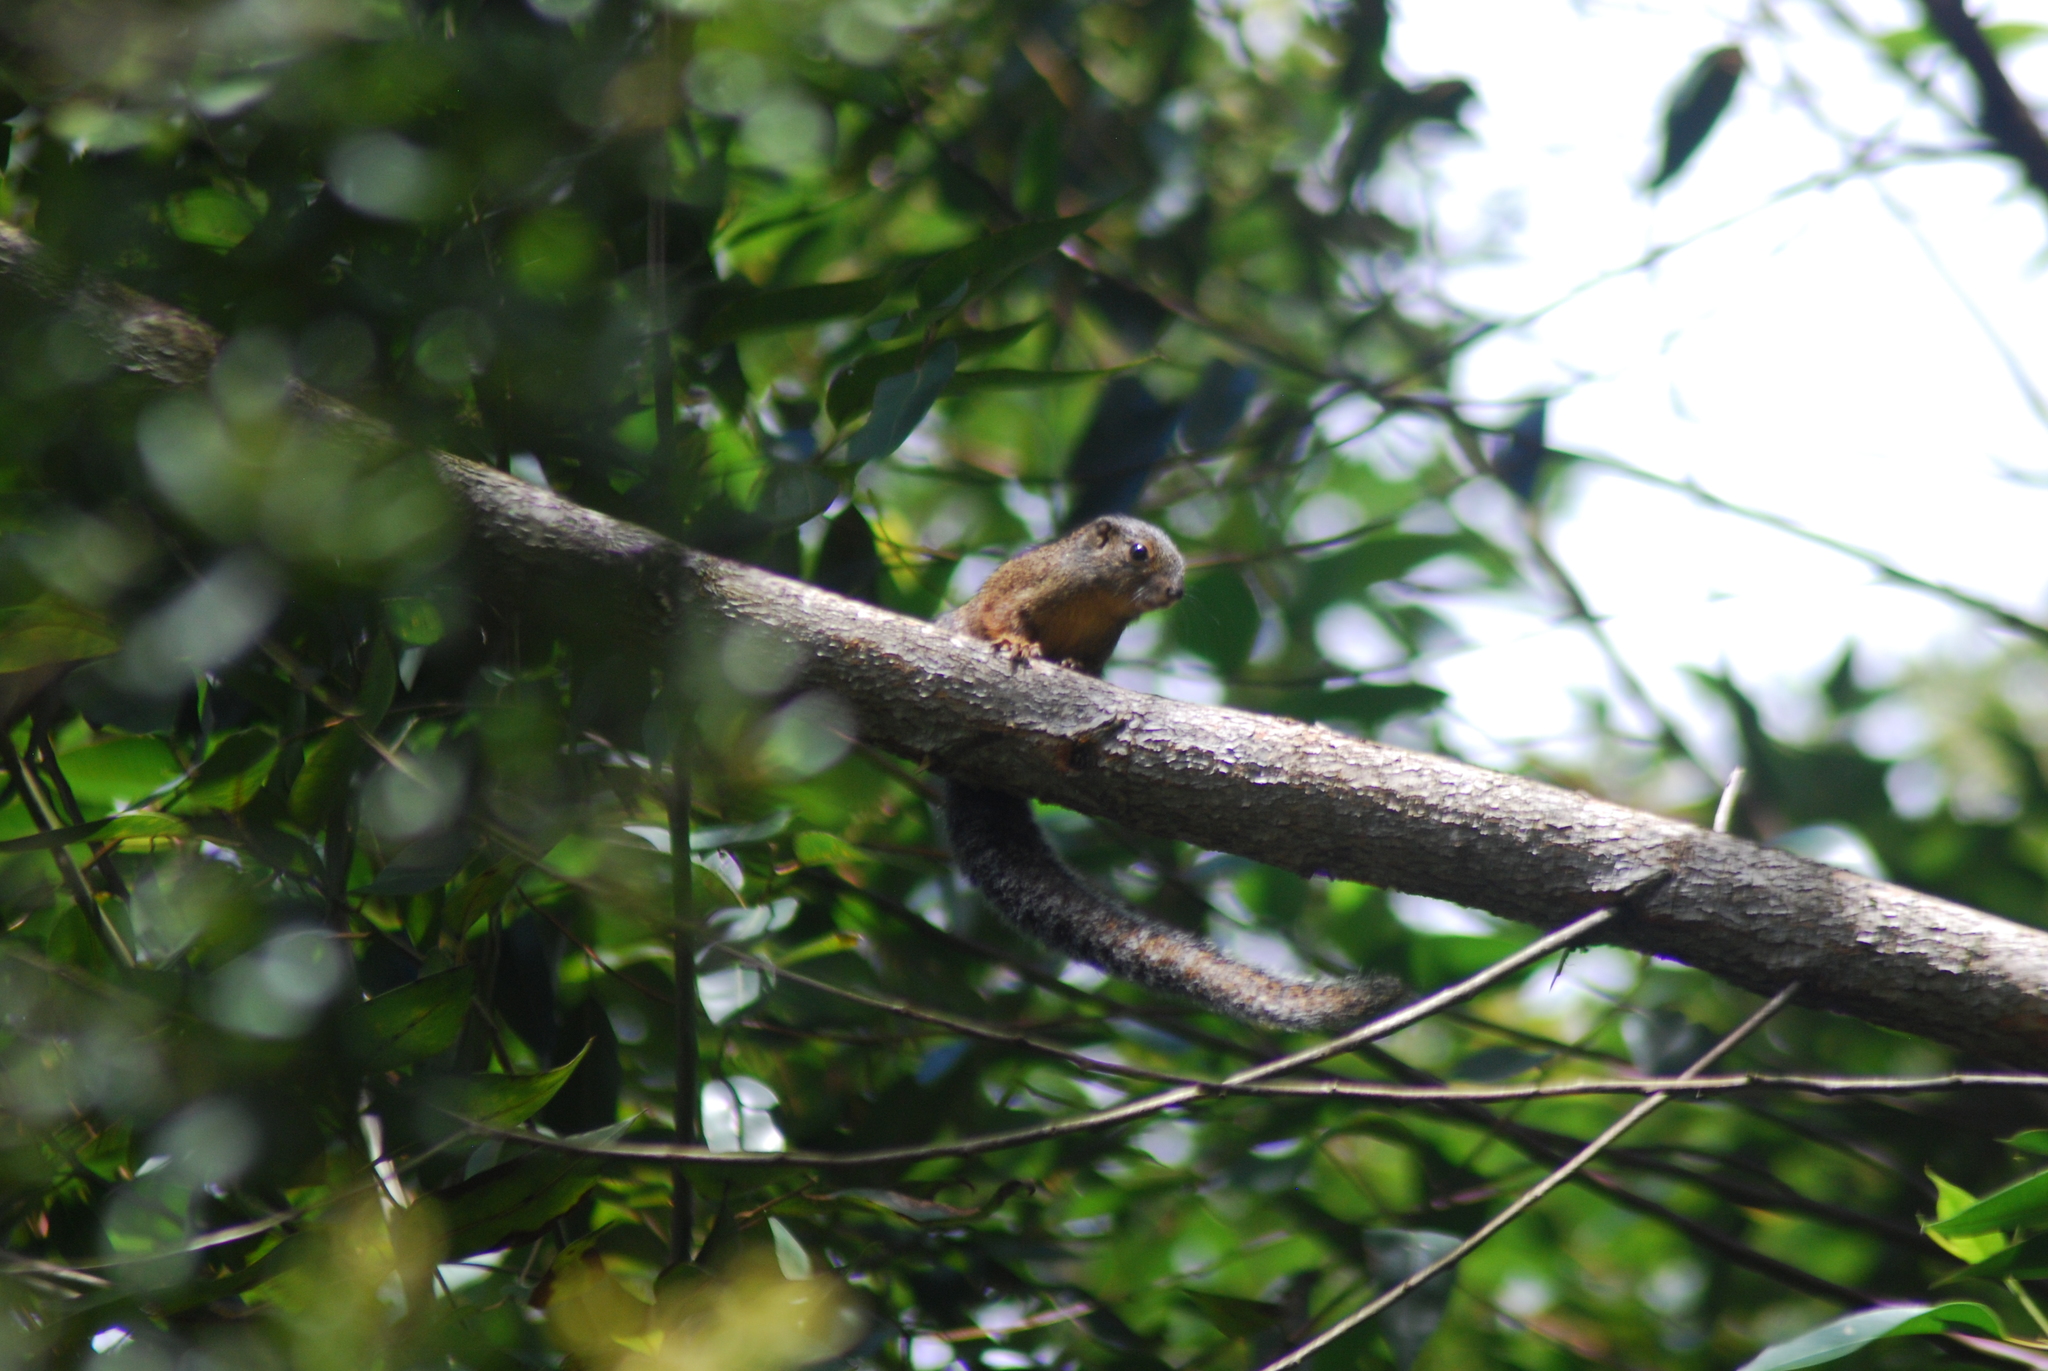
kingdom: Animalia
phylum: Chordata
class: Mammalia
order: Rodentia
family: Sciuridae
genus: Heliosciurus
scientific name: Heliosciurus undulatus
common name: Zanj sun squirrel
